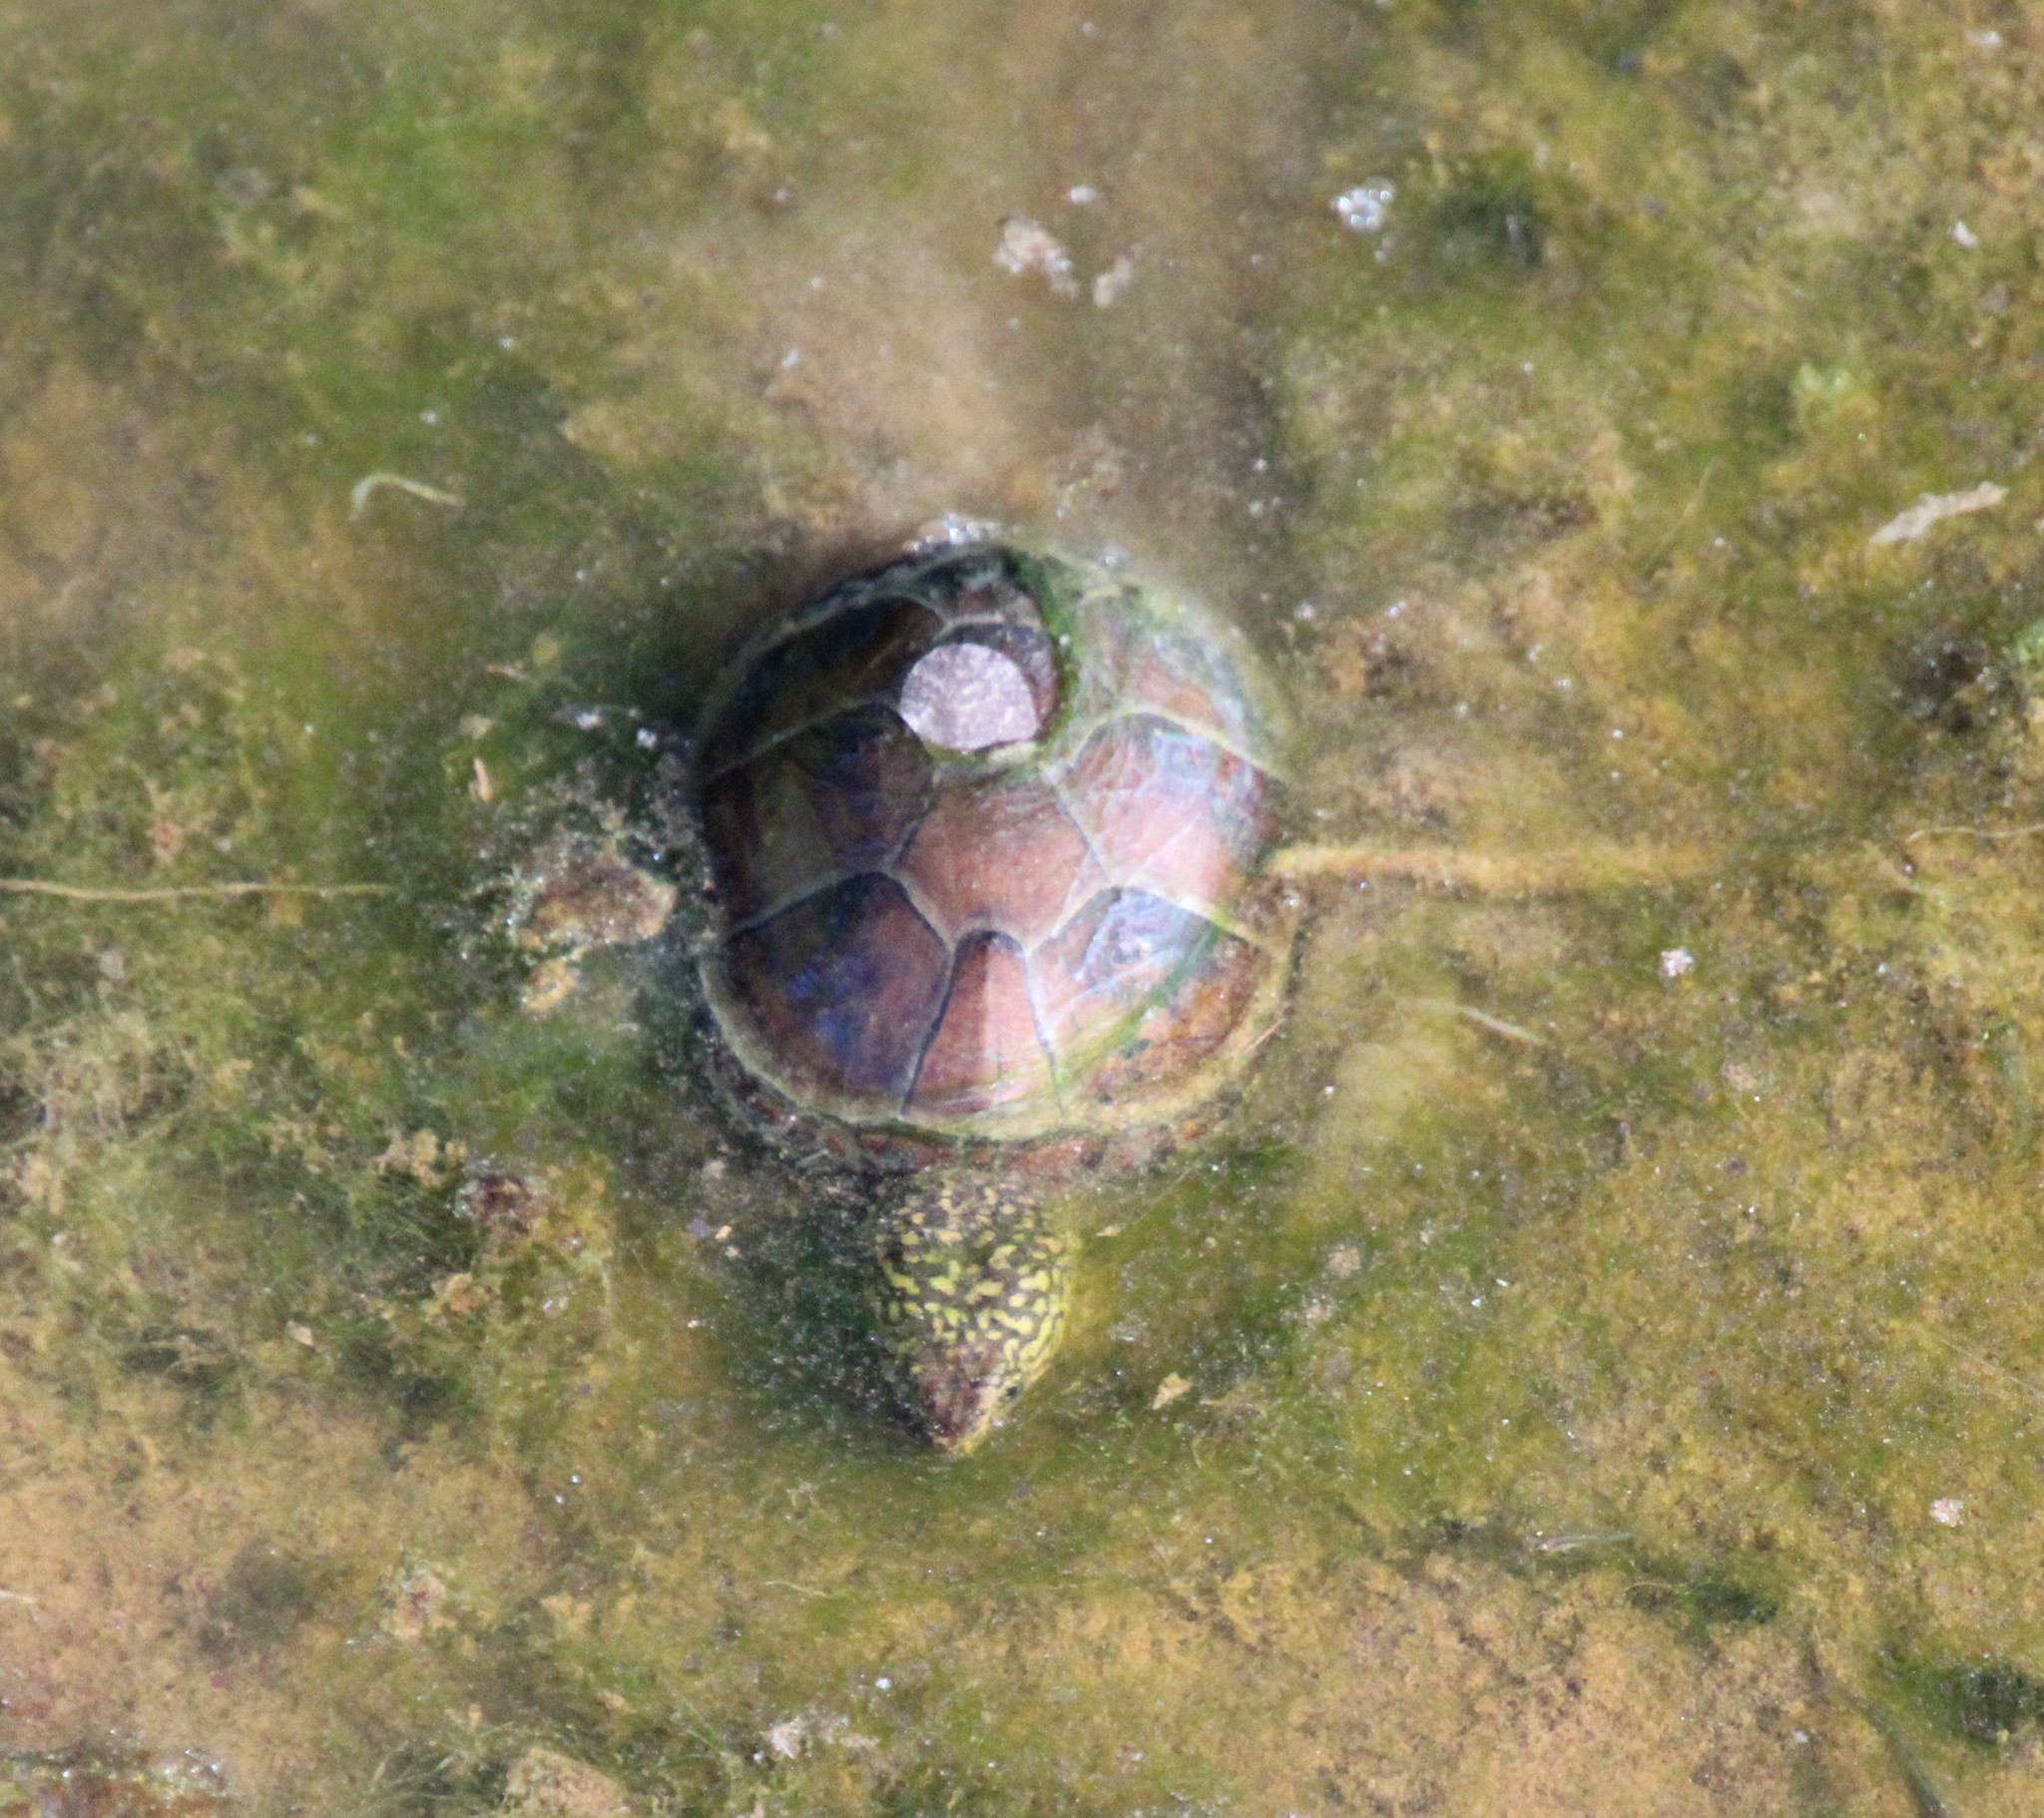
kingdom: Animalia
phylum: Chordata
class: Testudines
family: Kinosternidae
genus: Kinosternon
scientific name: Kinosternon subrubrum
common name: Eastern mud turtle
